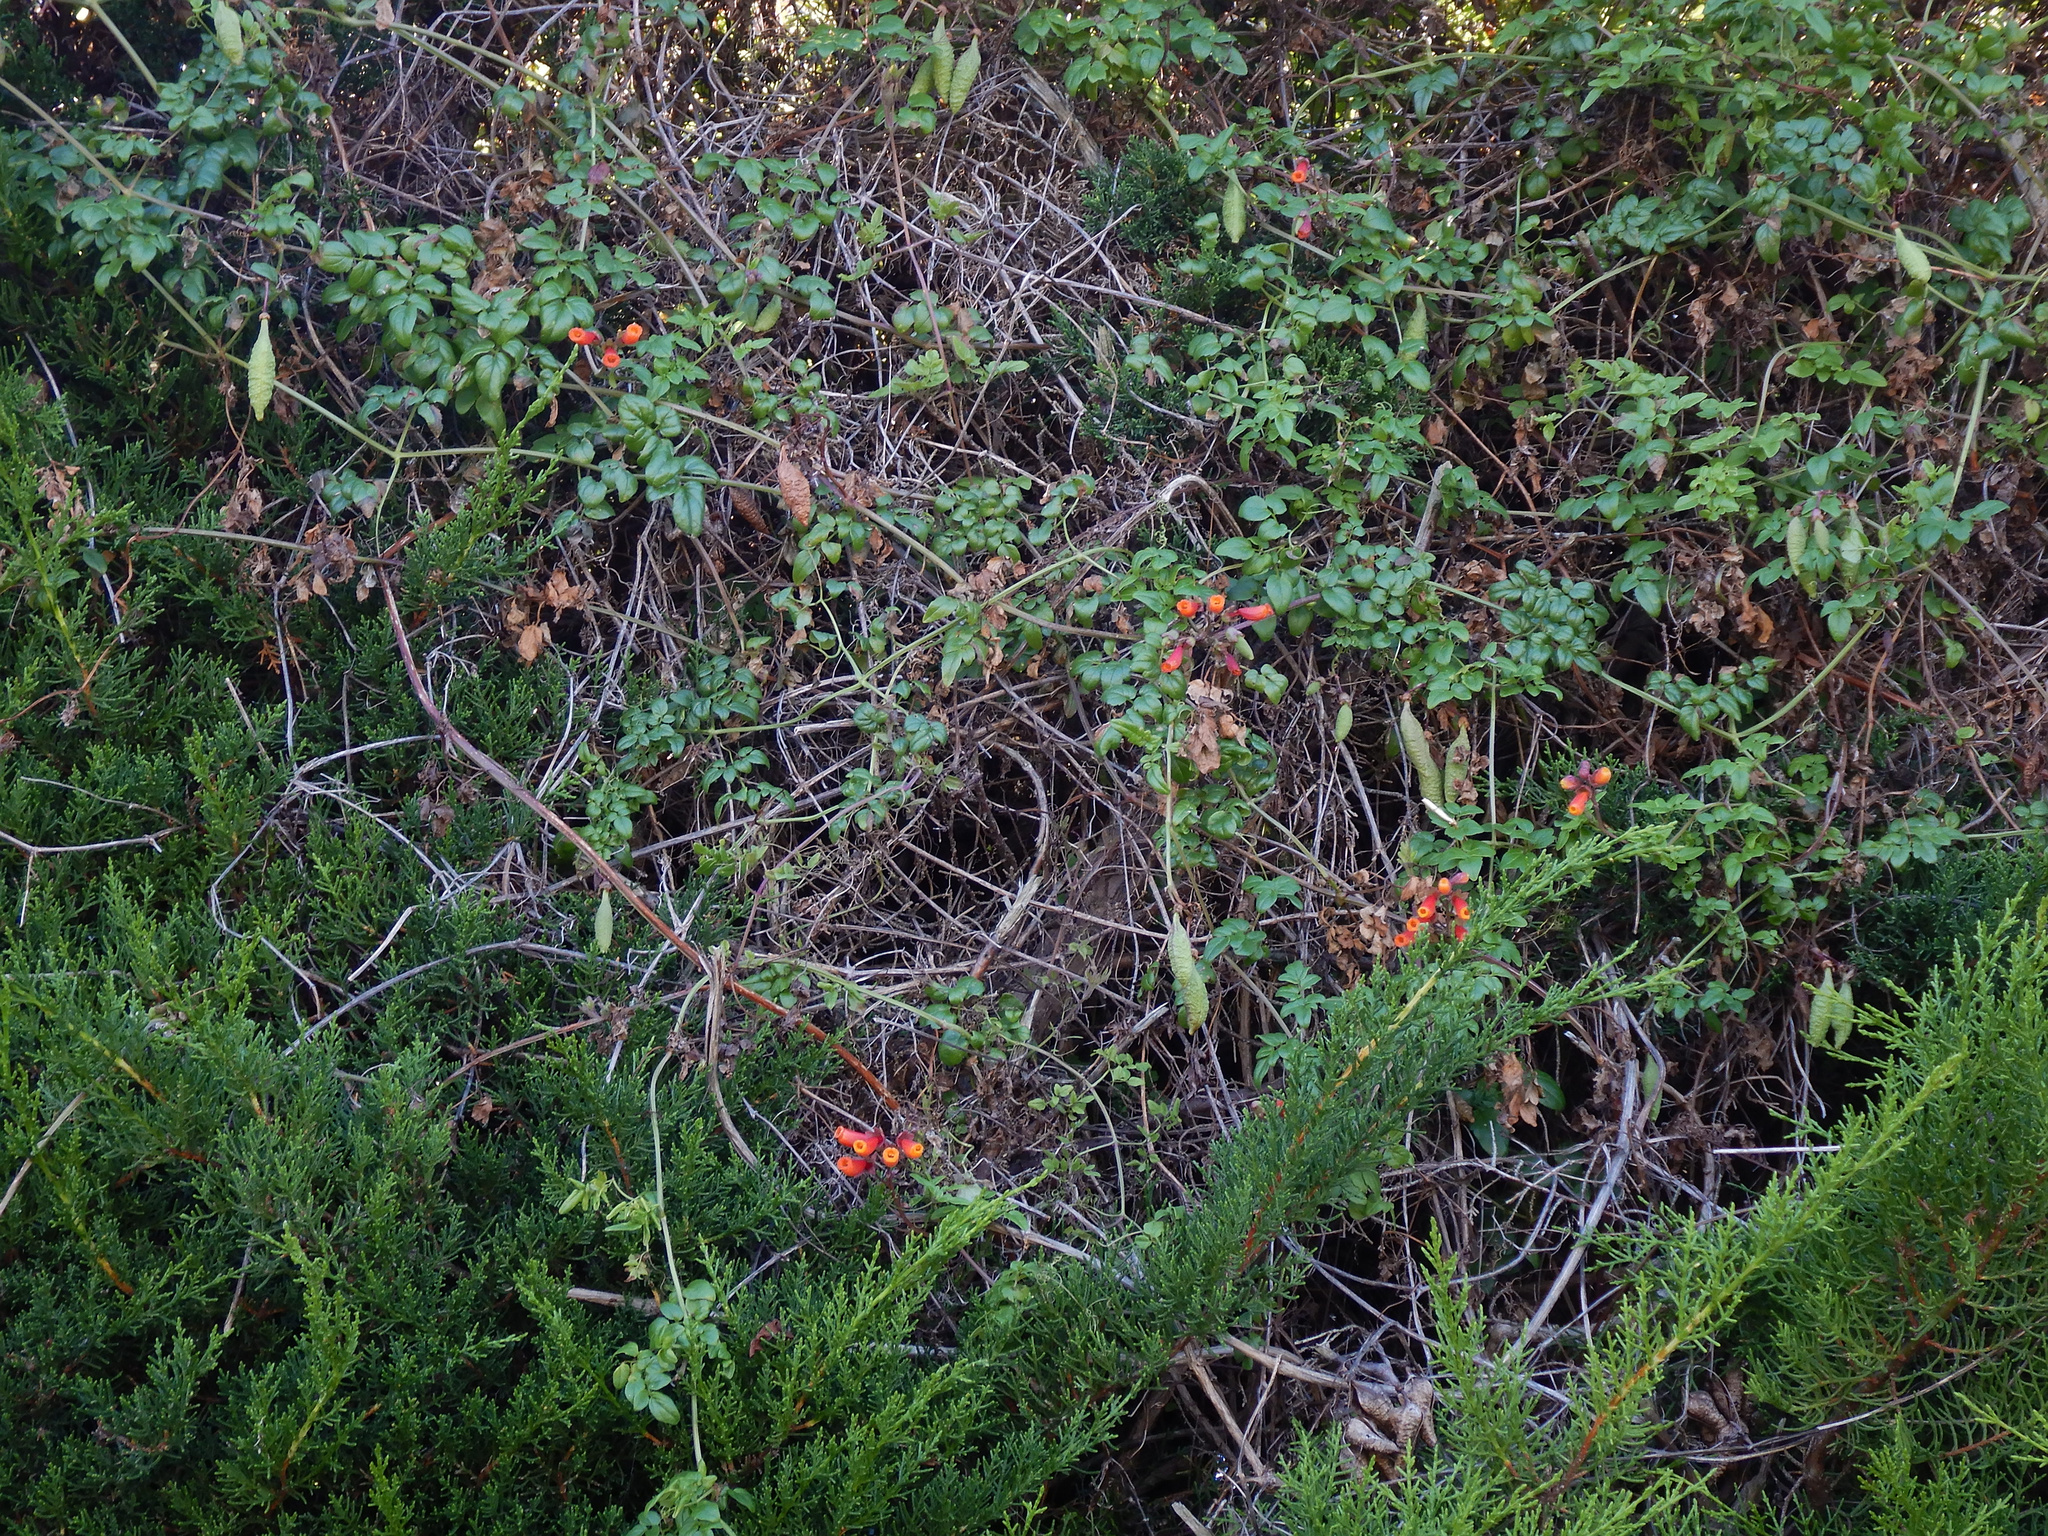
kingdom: Plantae
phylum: Tracheophyta
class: Magnoliopsida
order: Lamiales
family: Bignoniaceae
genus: Eccremocarpus
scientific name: Eccremocarpus scaber
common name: Chilean glory-flower
